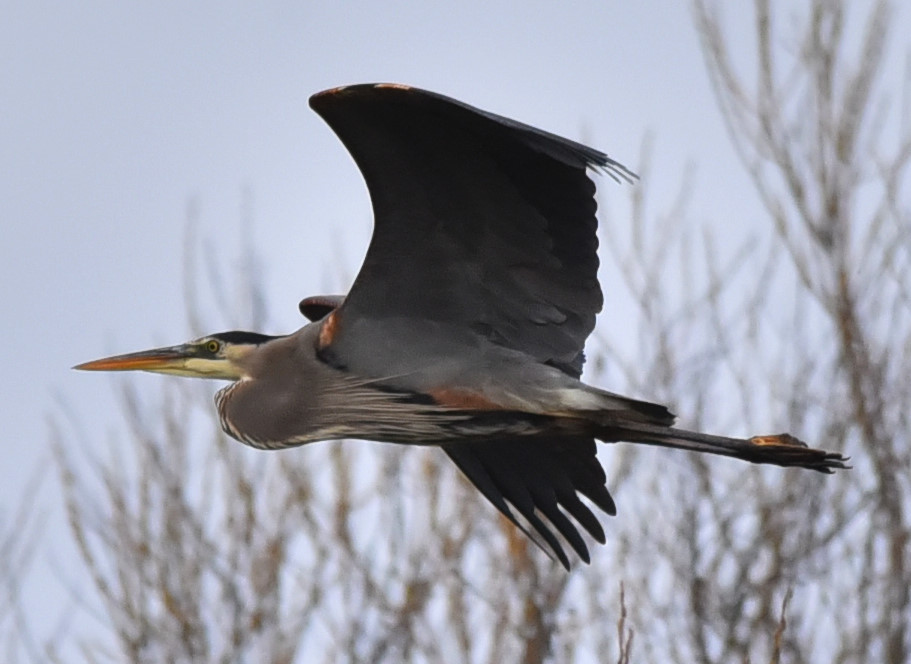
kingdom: Animalia
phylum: Chordata
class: Aves
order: Pelecaniformes
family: Ardeidae
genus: Ardea
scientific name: Ardea herodias
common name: Great blue heron
